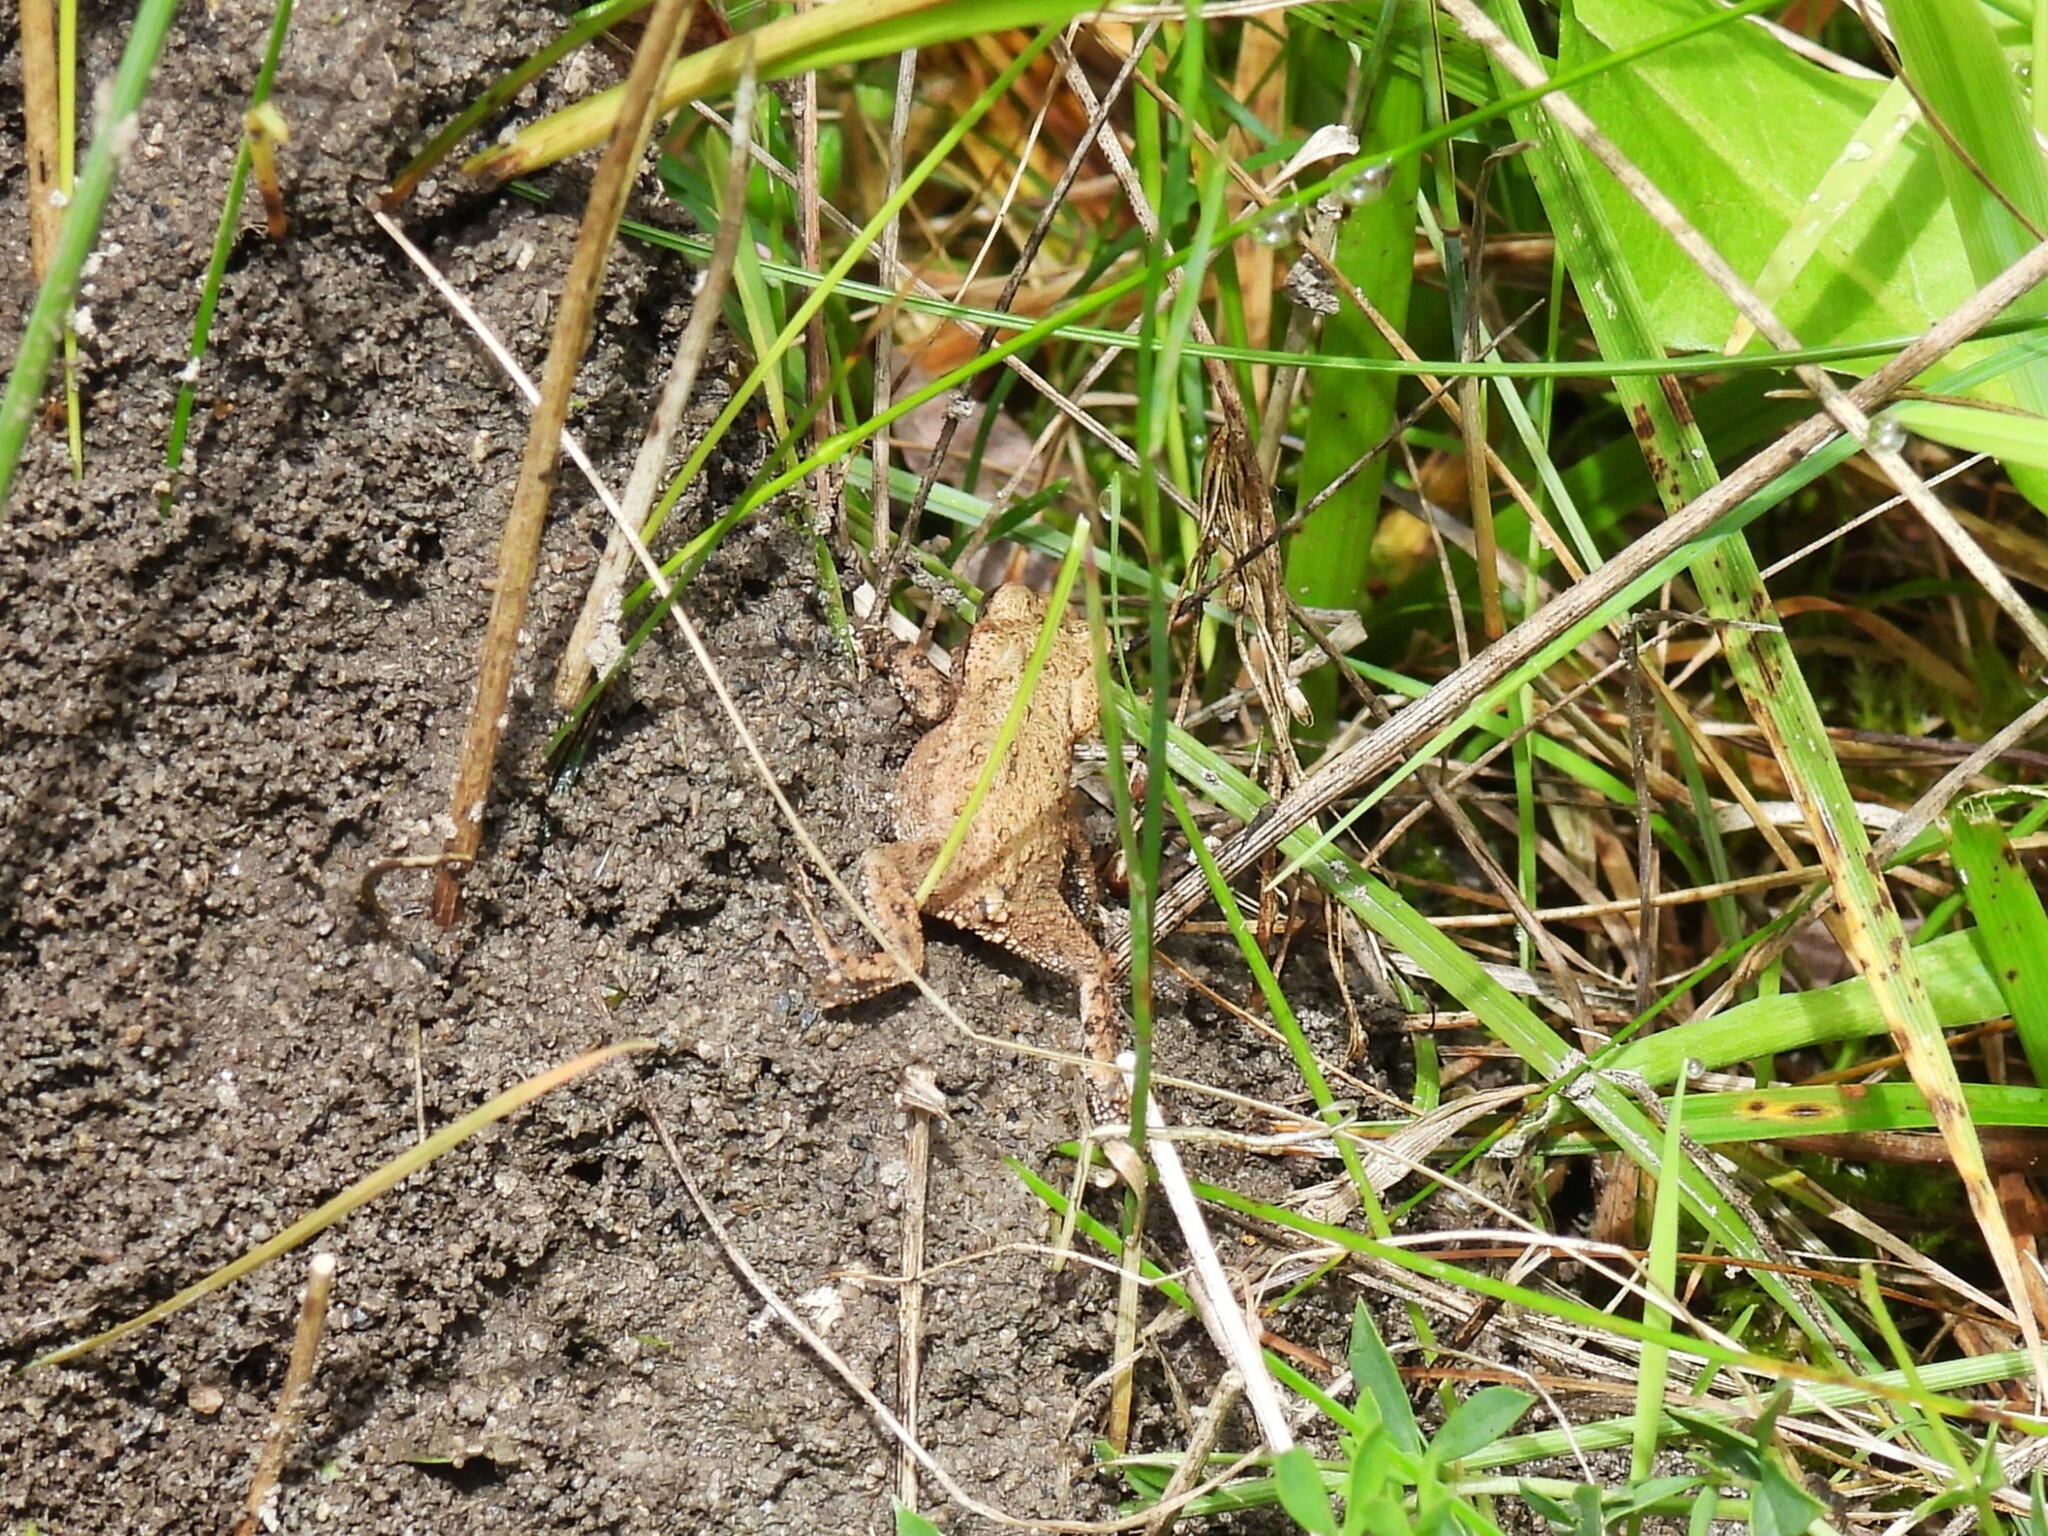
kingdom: Animalia
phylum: Chordata
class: Amphibia
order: Anura
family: Bufonidae
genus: Bufo
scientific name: Bufo bufo
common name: Common toad
